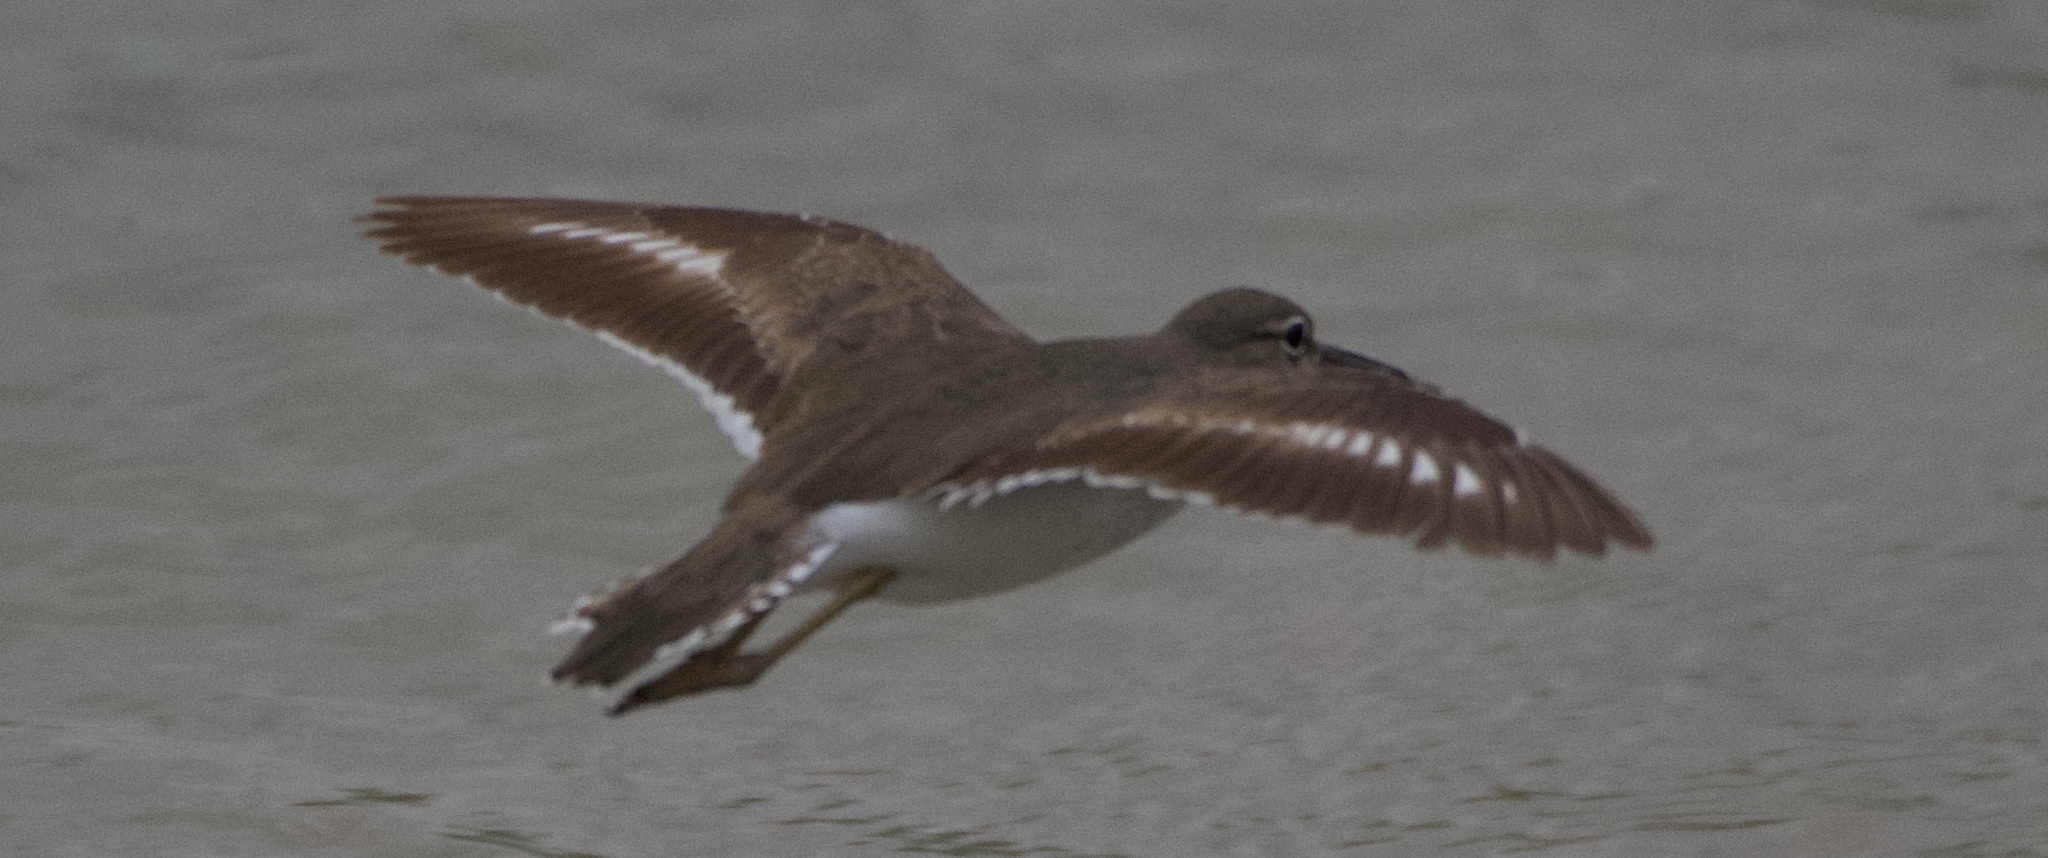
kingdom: Animalia
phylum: Chordata
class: Aves
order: Charadriiformes
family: Scolopacidae
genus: Actitis
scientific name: Actitis macularius
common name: Spotted sandpiper
